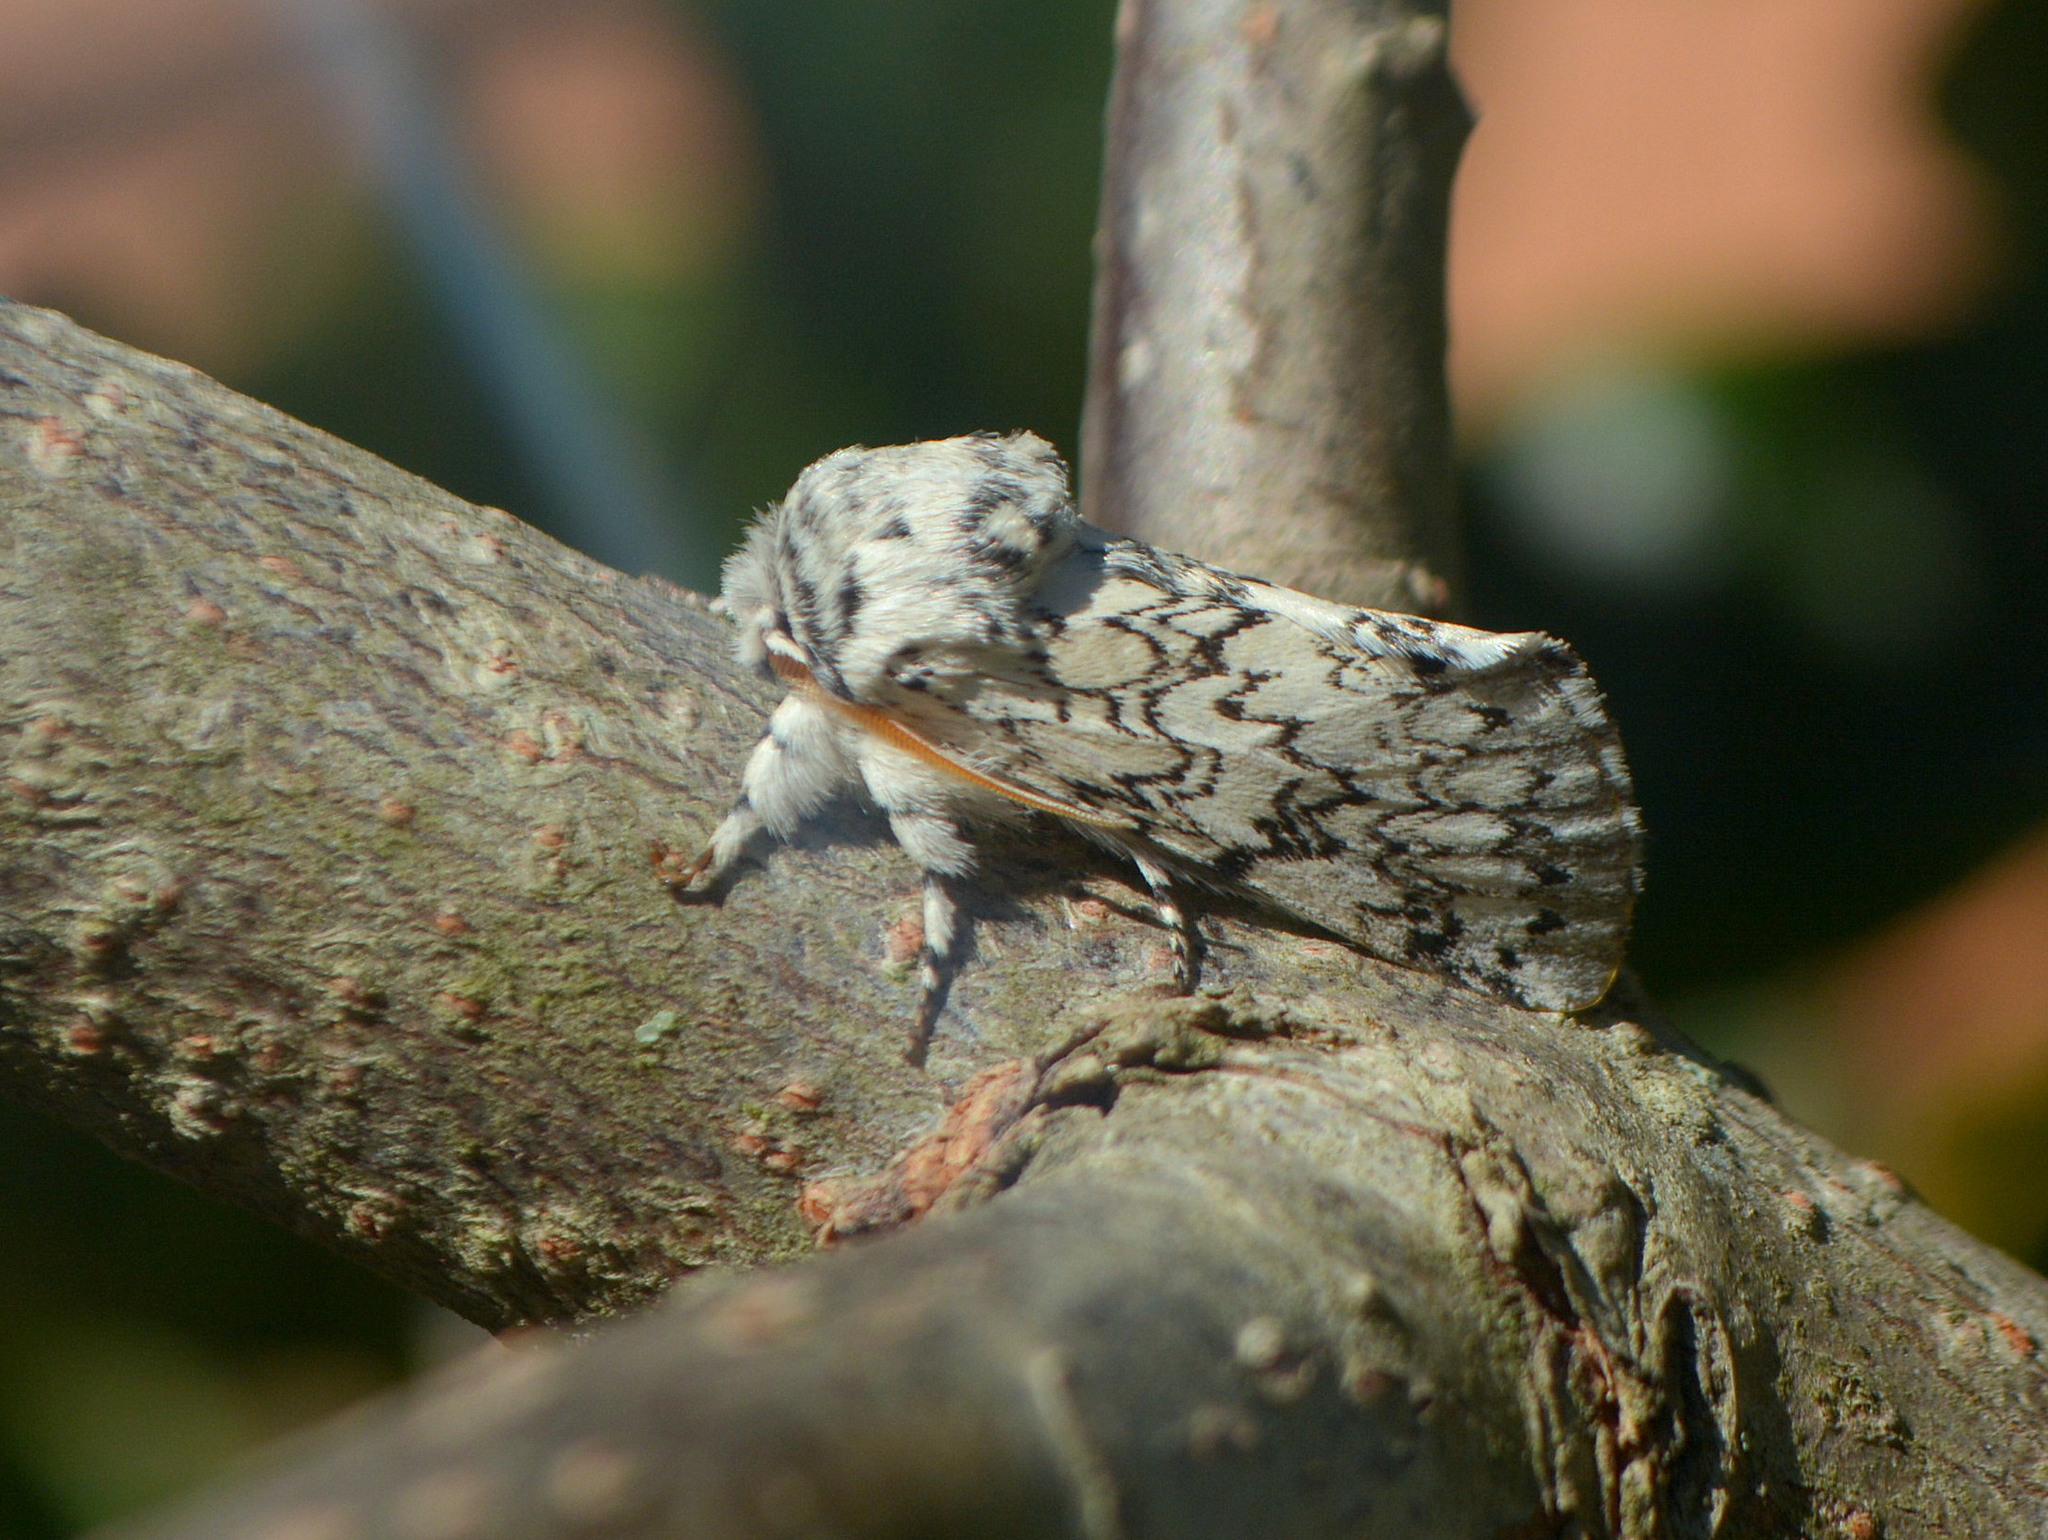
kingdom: Animalia
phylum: Arthropoda
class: Insecta
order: Lepidoptera
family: Notodontidae
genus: Tecmessa
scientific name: Tecmessa annulipes
